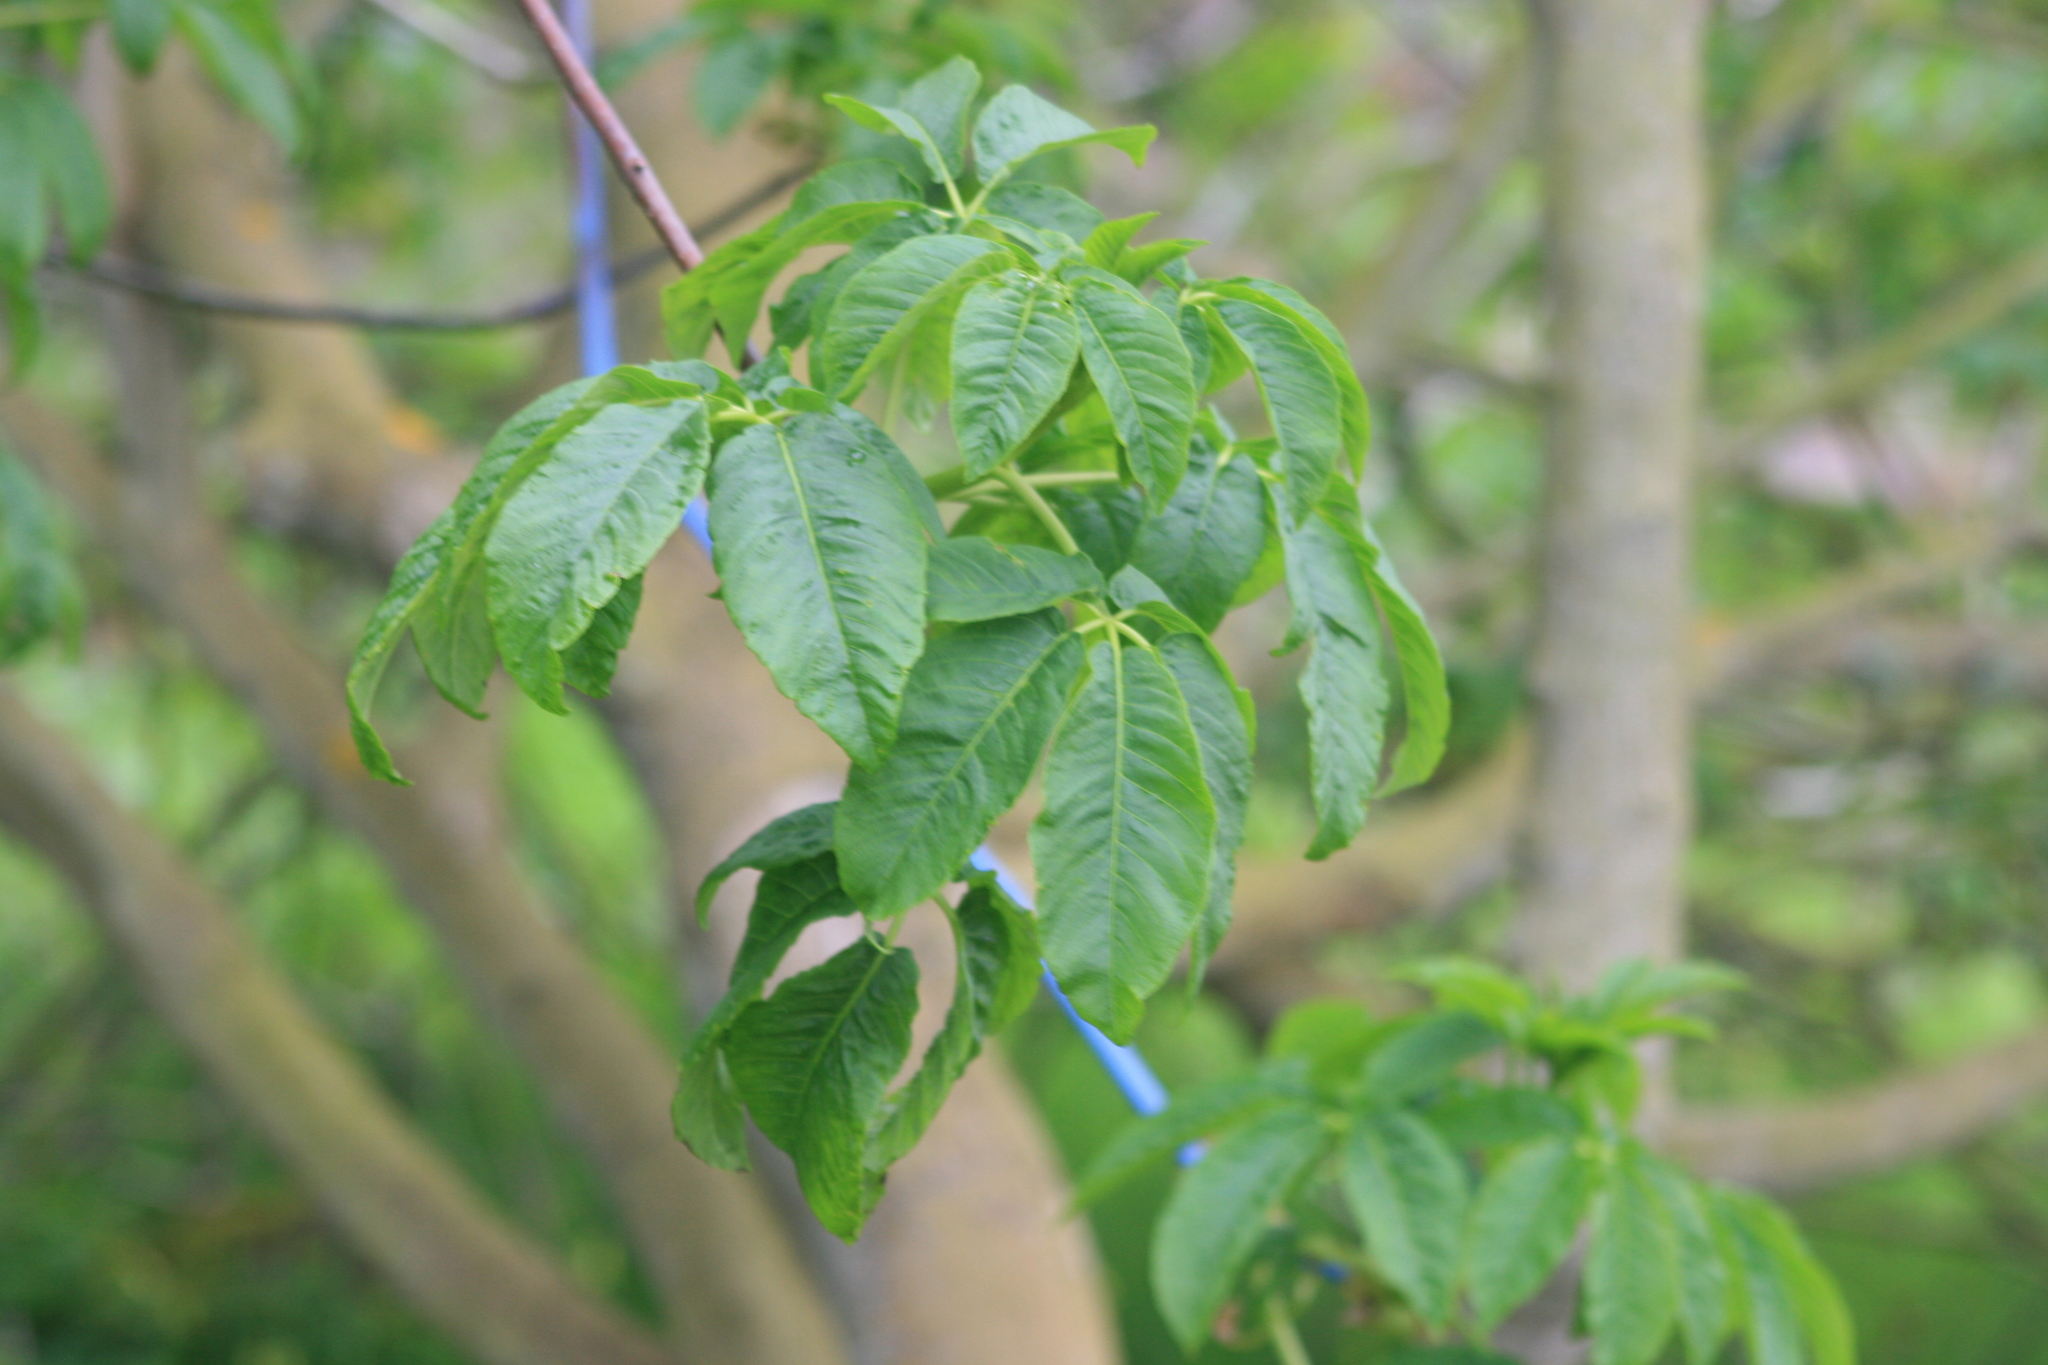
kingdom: Plantae
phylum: Tracheophyta
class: Magnoliopsida
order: Sapindales
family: Sapindaceae
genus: Aesculus
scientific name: Aesculus californica
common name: California buckeye
